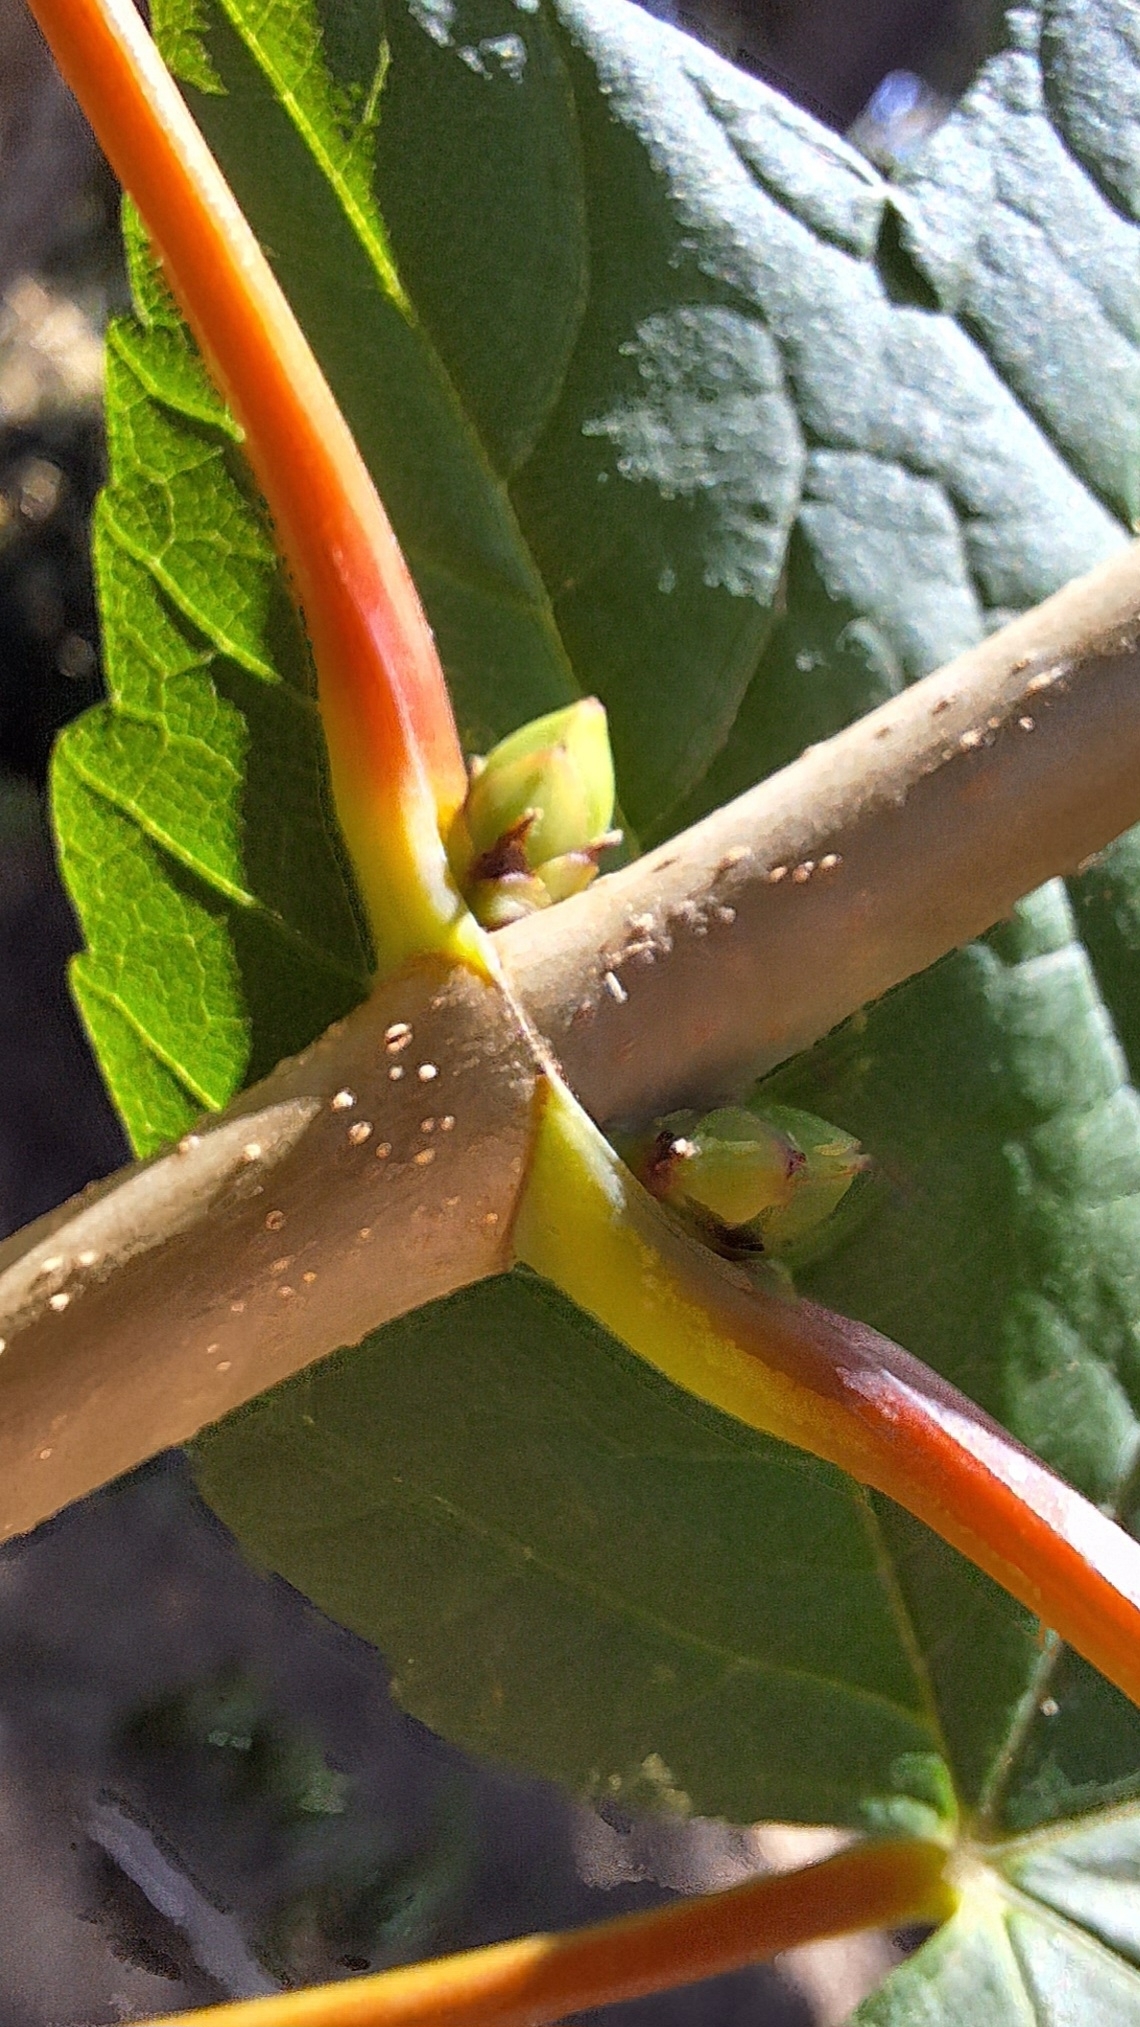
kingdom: Plantae
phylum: Tracheophyta
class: Magnoliopsida
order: Sapindales
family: Sapindaceae
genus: Acer
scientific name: Acer pseudoplatanus
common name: Sycamore
